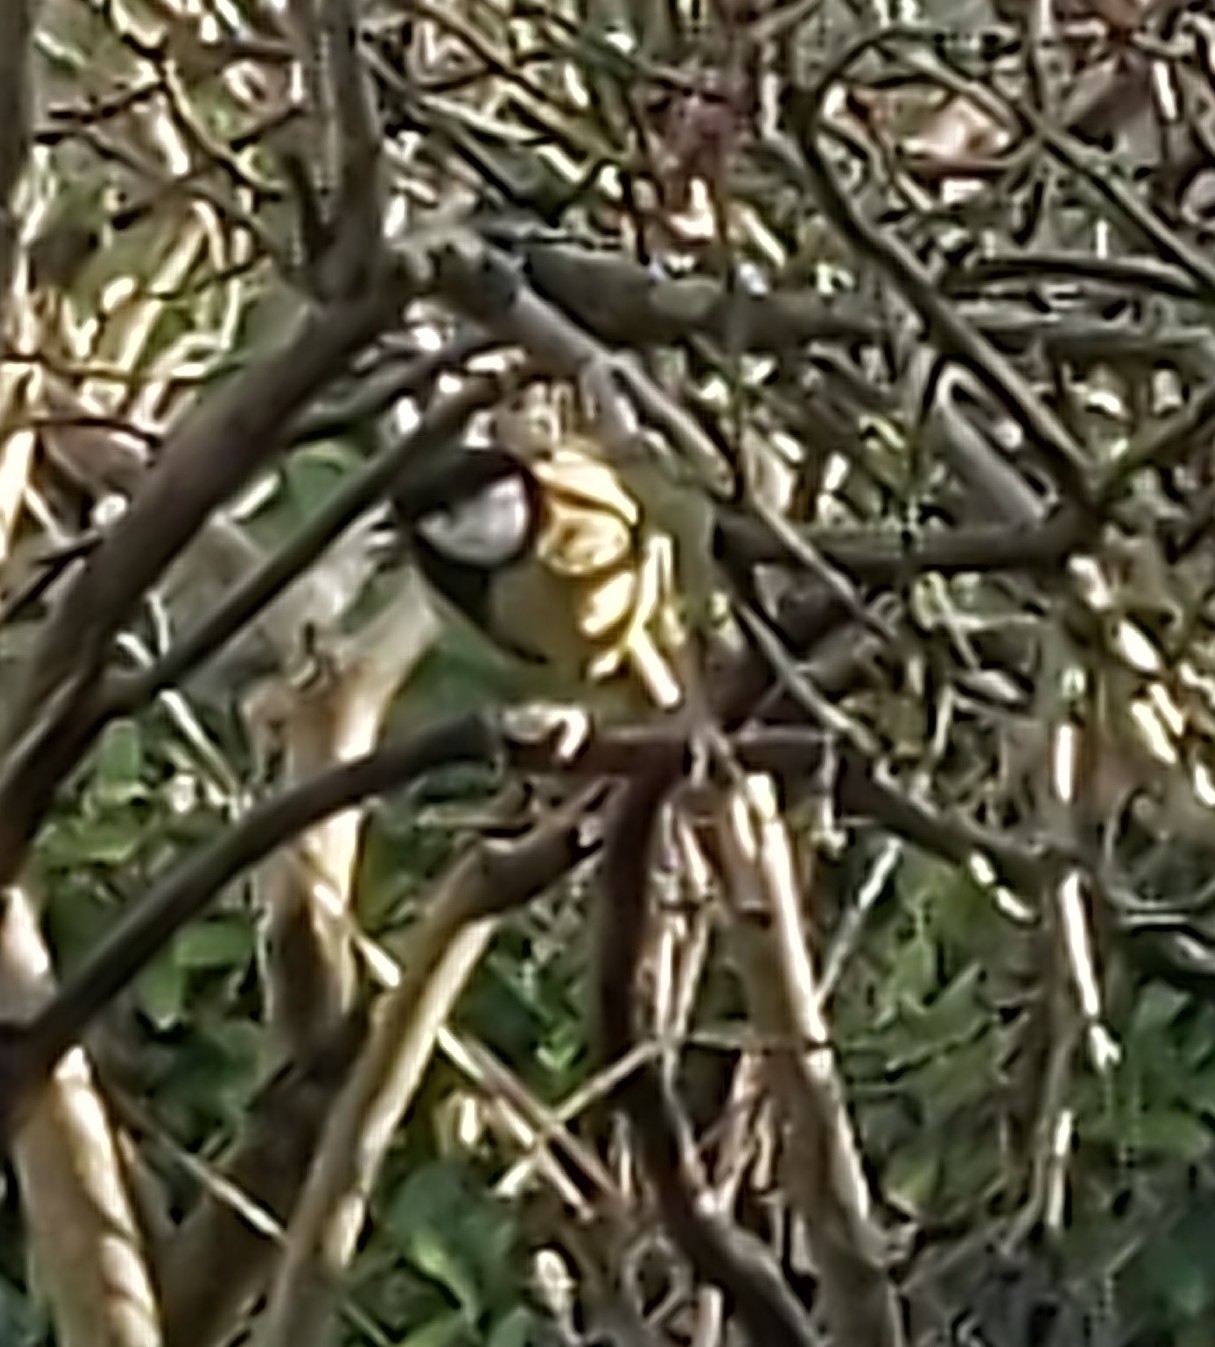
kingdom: Animalia
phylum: Chordata
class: Aves
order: Passeriformes
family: Paridae
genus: Parus
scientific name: Parus major
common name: Great tit
